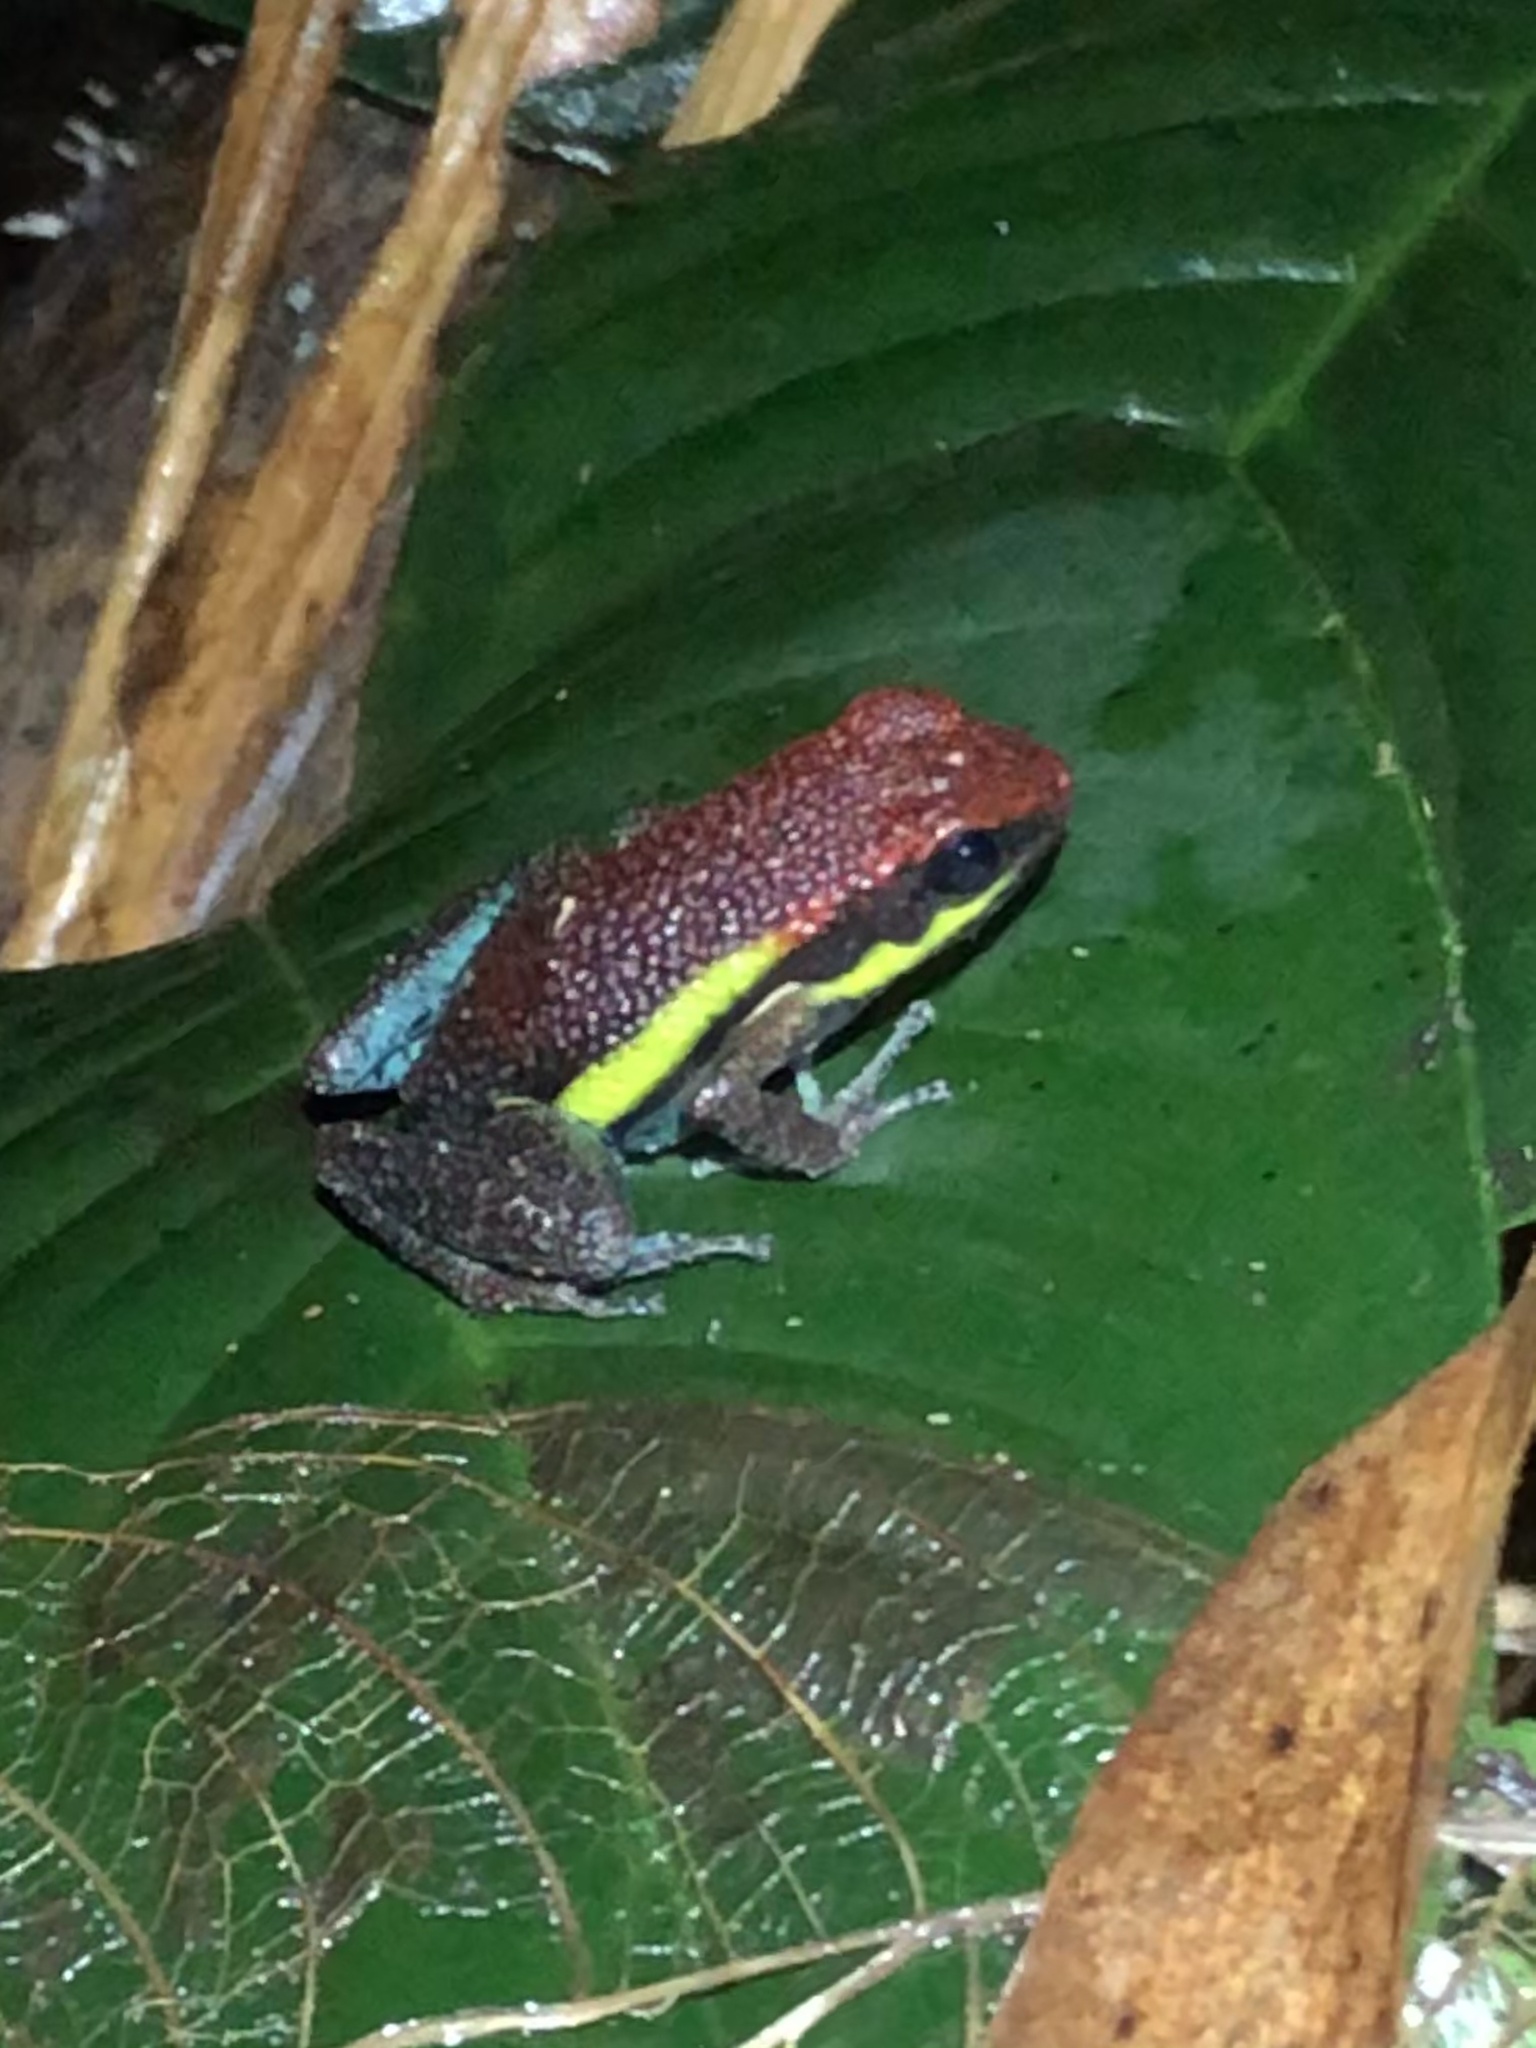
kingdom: Animalia
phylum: Chordata
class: Amphibia
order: Anura
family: Dendrobatidae
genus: Ameerega
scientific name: Ameerega macero
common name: Manu poison frog
